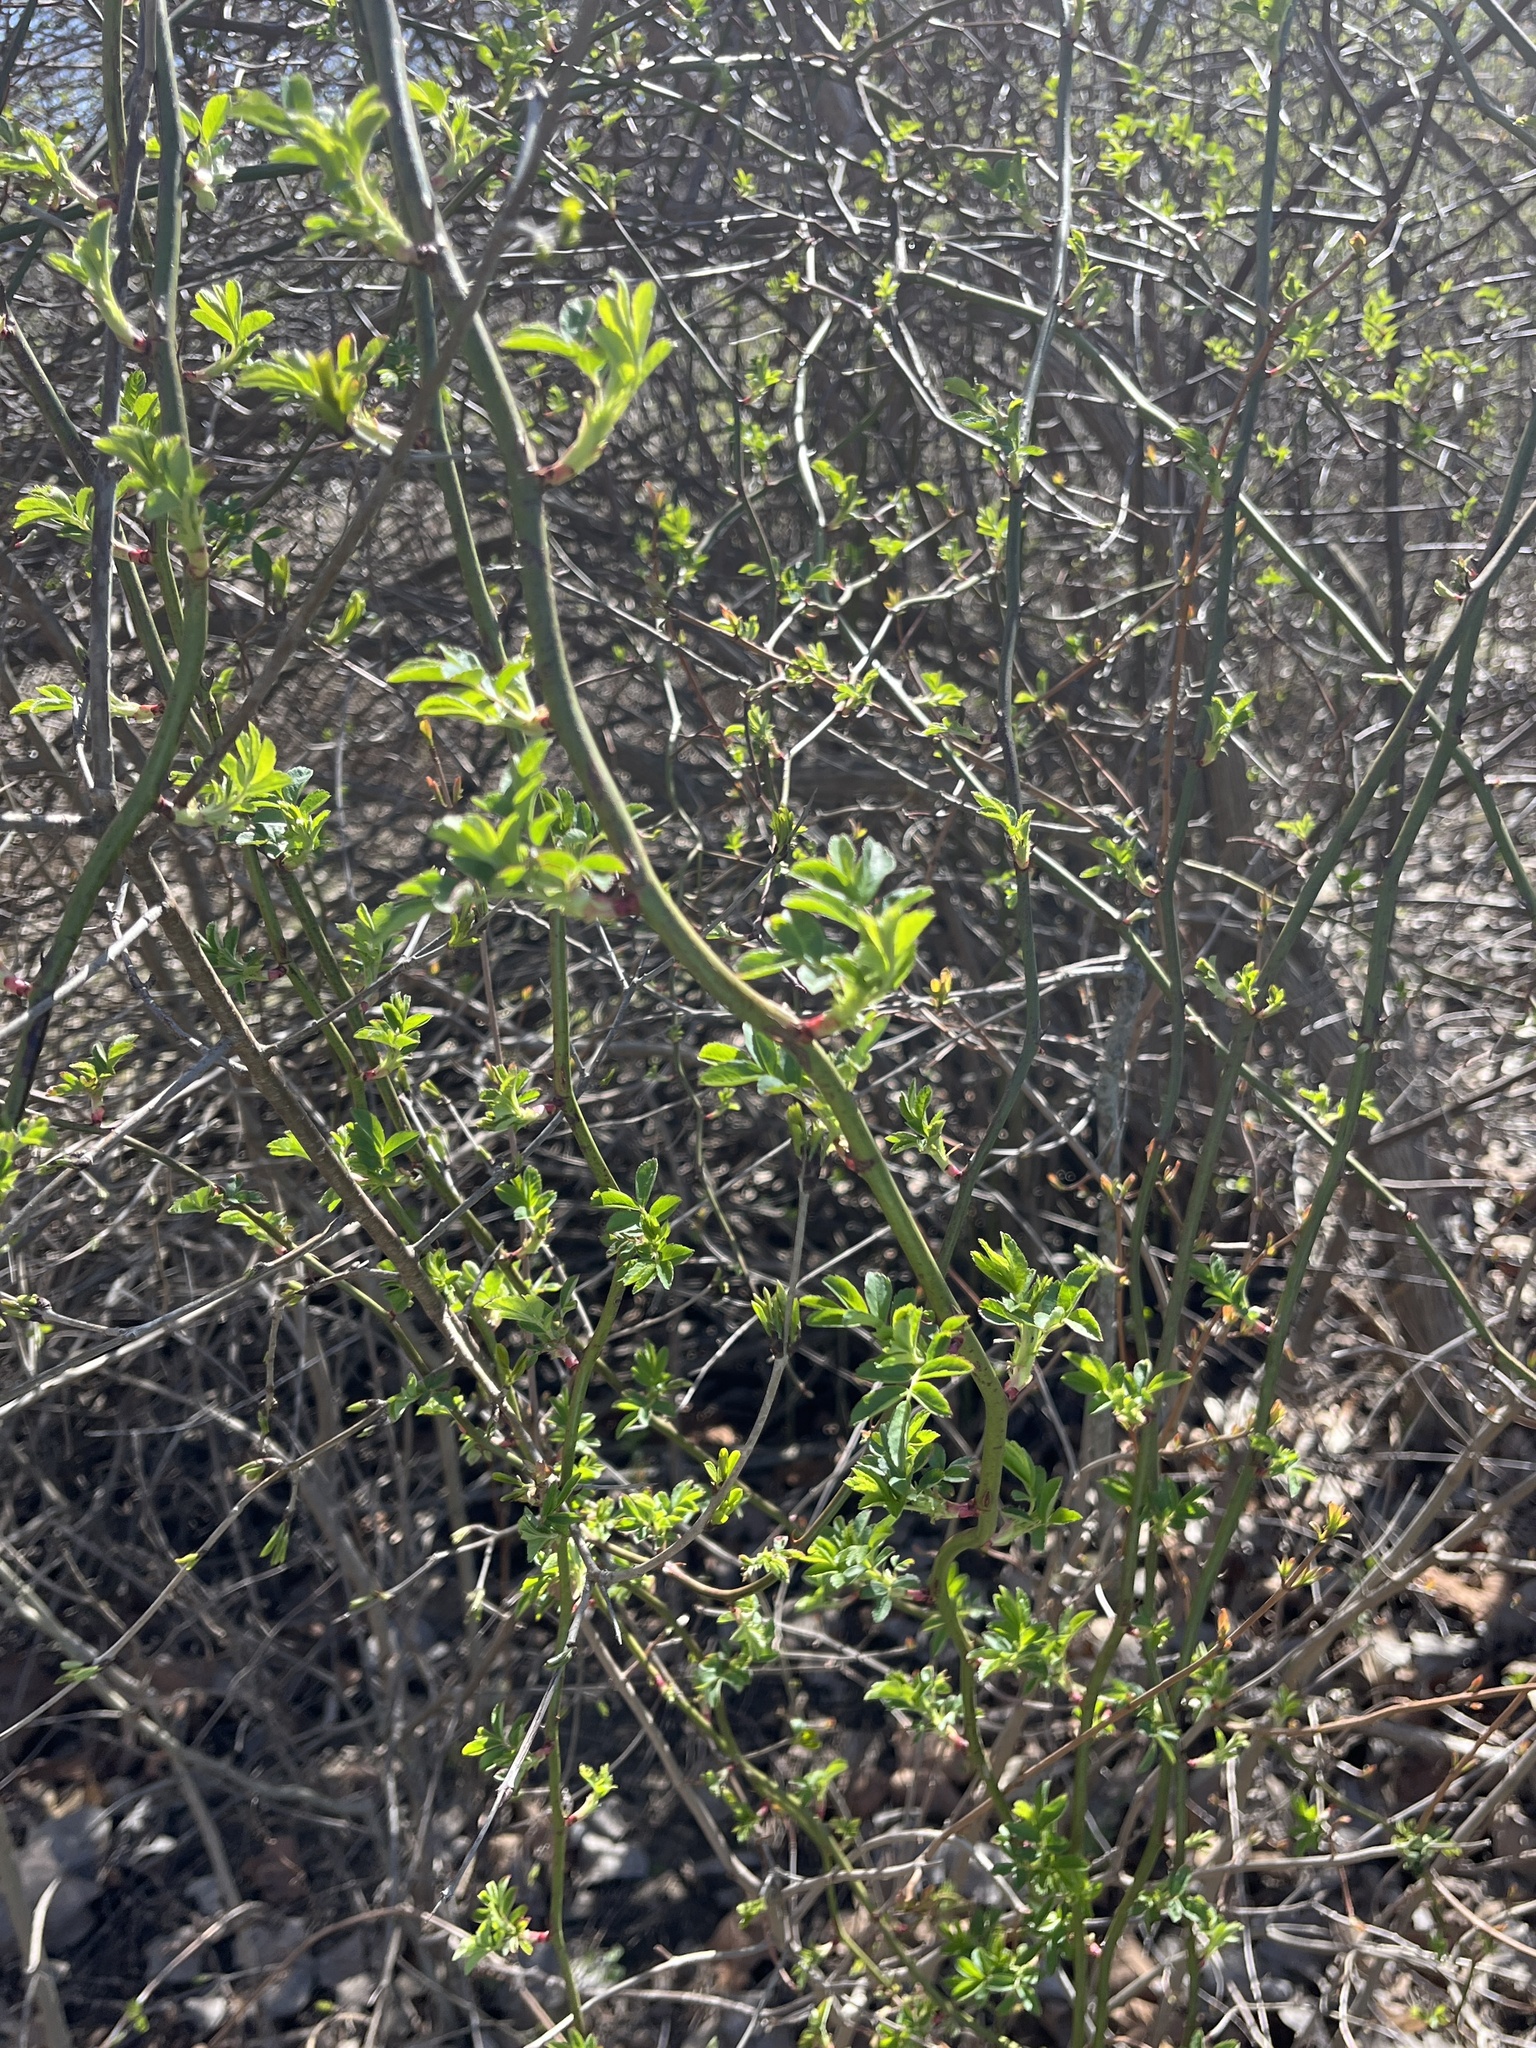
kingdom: Plantae
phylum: Tracheophyta
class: Magnoliopsida
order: Rosales
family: Rosaceae
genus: Rosa
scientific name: Rosa multiflora
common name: Multiflora rose
